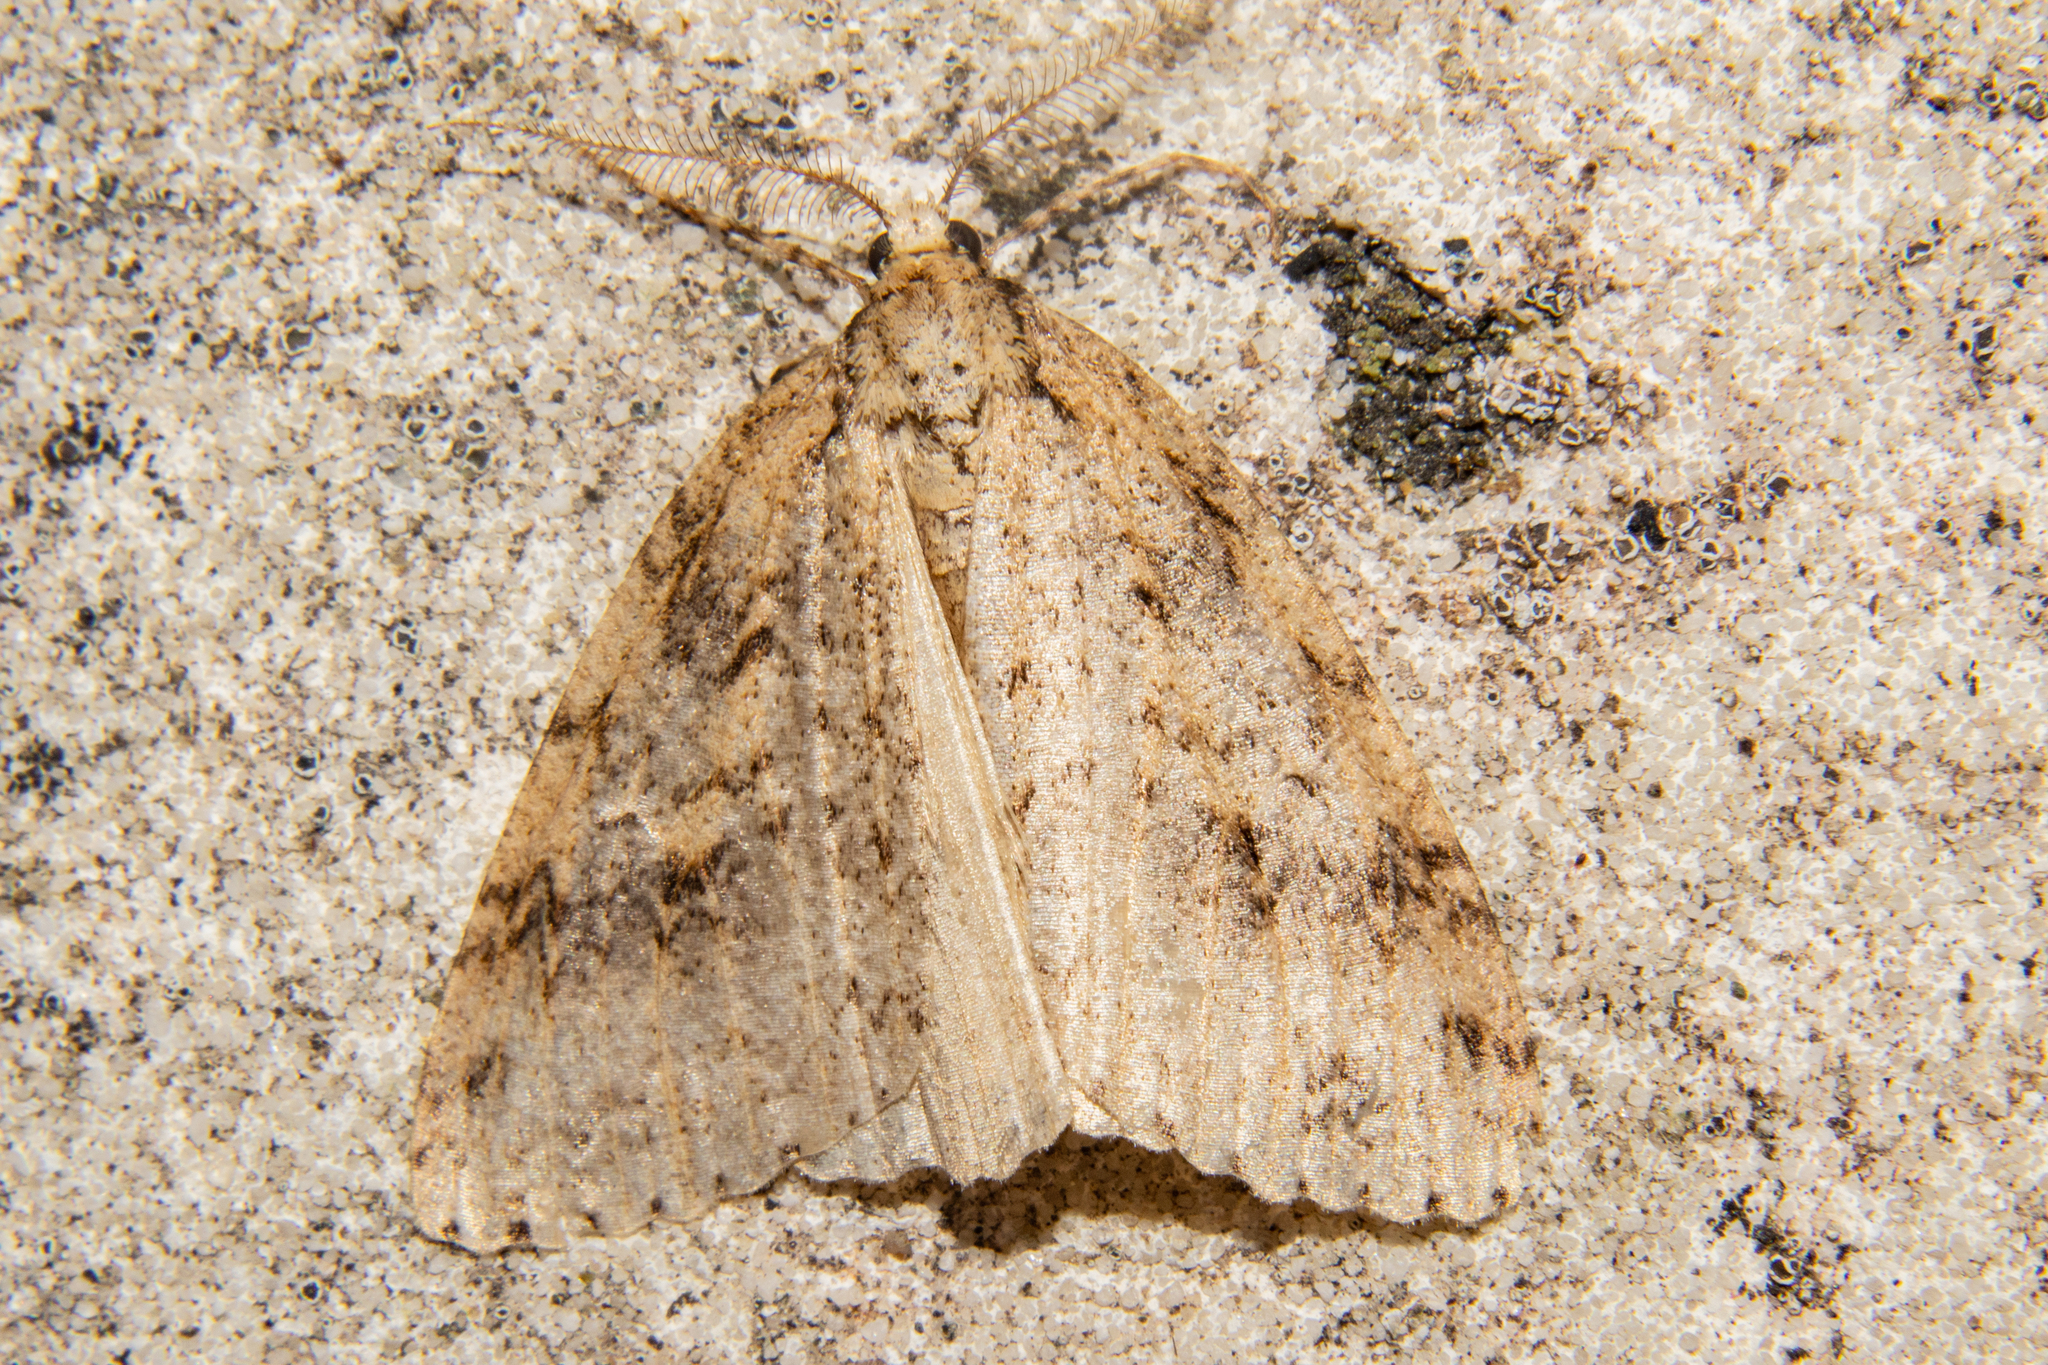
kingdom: Animalia
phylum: Arthropoda
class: Insecta
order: Lepidoptera
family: Geometridae
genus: Pseudocoremia
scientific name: Pseudocoremia rudisata
